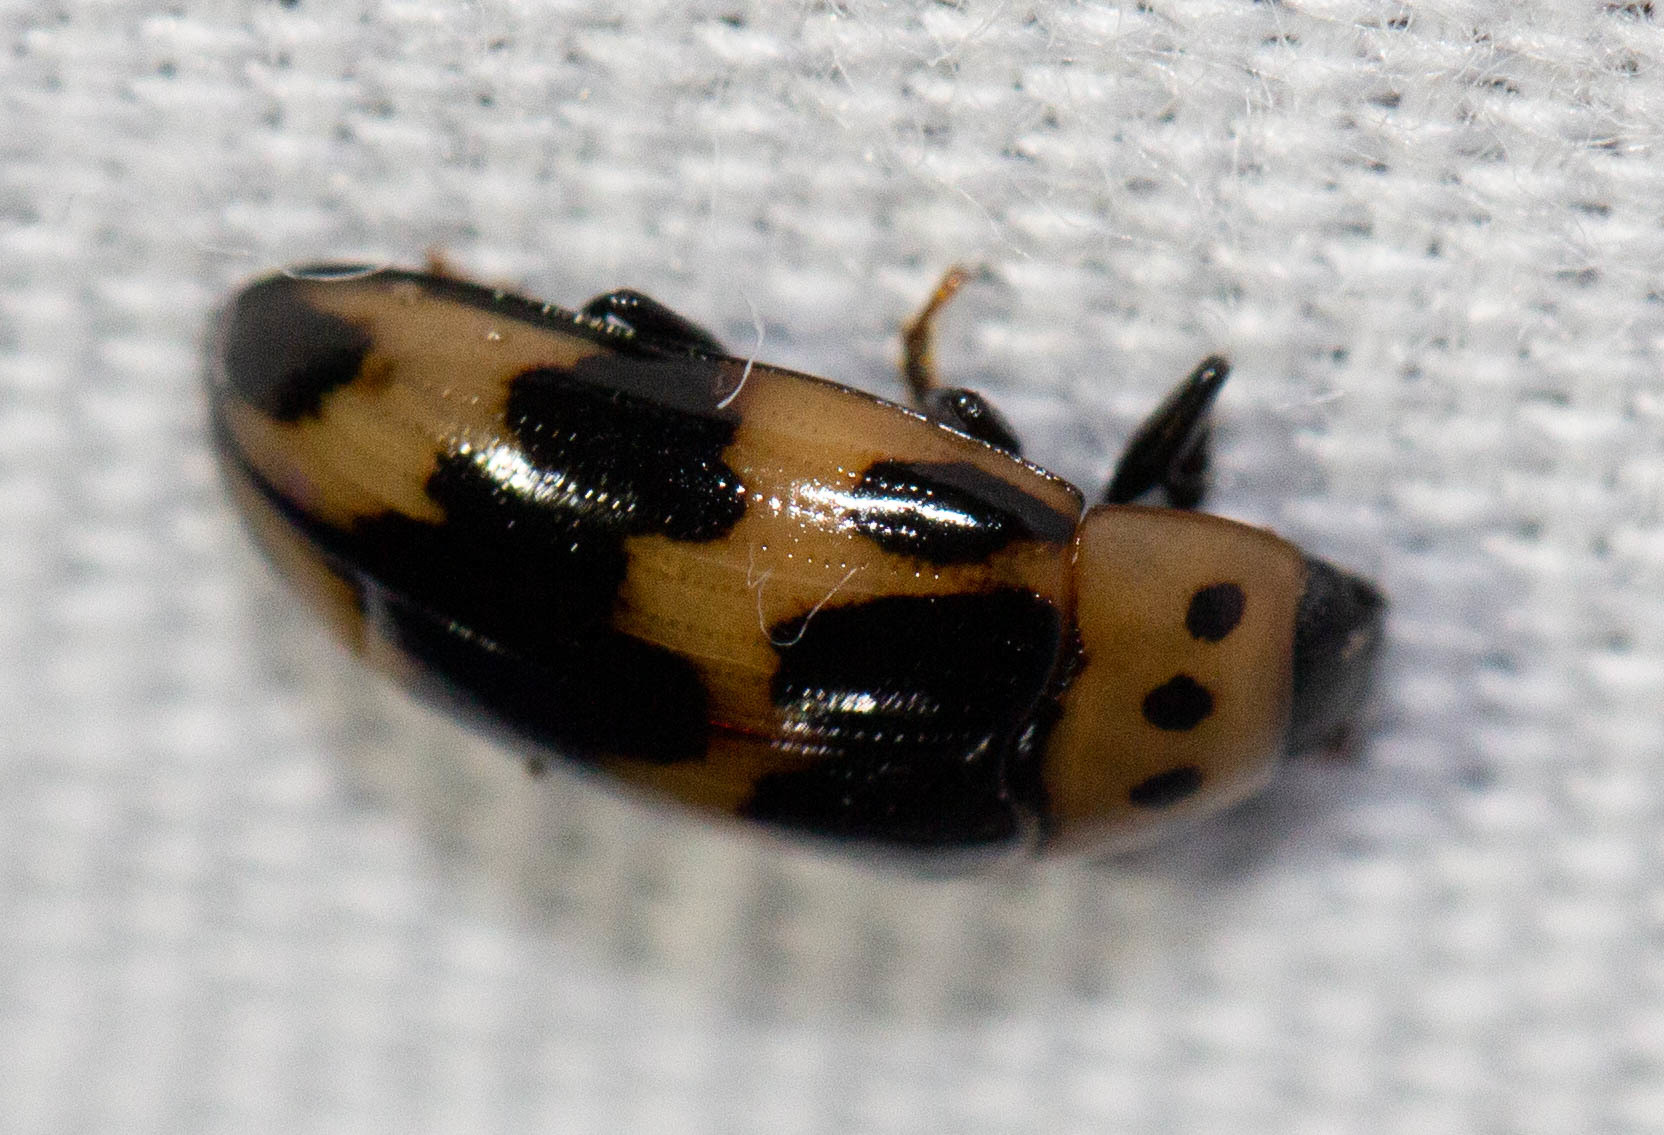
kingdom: Animalia
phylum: Arthropoda
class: Insecta
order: Coleoptera
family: Erotylidae
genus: Ischyrus
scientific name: Ischyrus quadripunctatus
